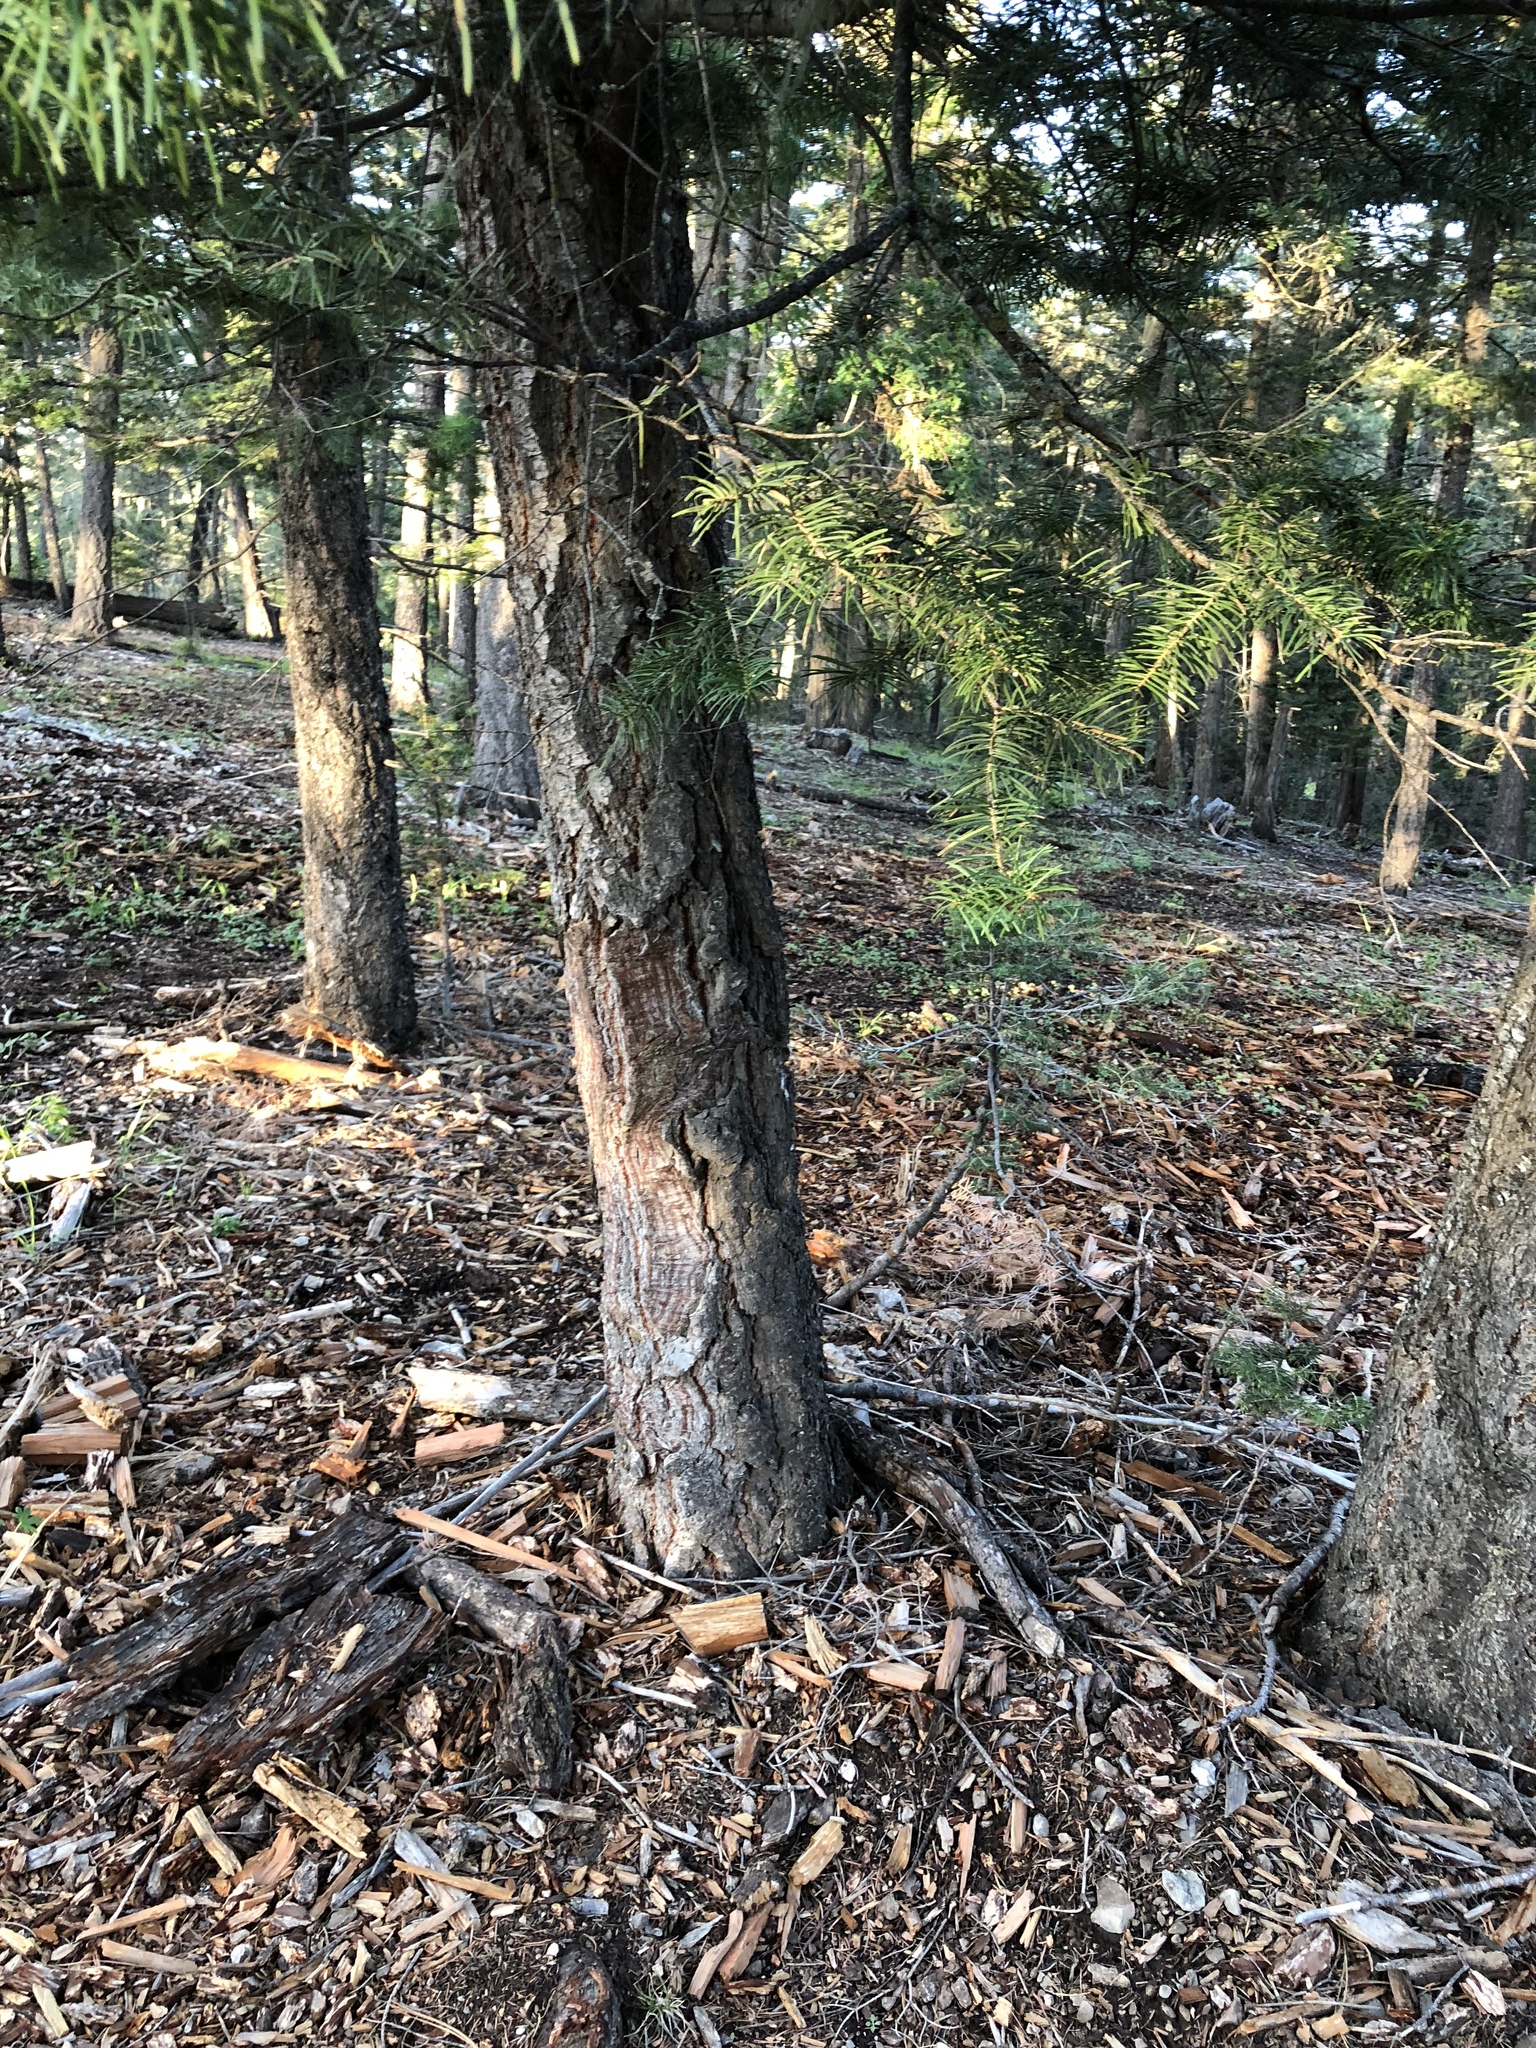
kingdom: Plantae
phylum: Tracheophyta
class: Pinopsida
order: Pinales
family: Pinaceae
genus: Abies
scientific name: Abies concolor
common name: Colorado fir
